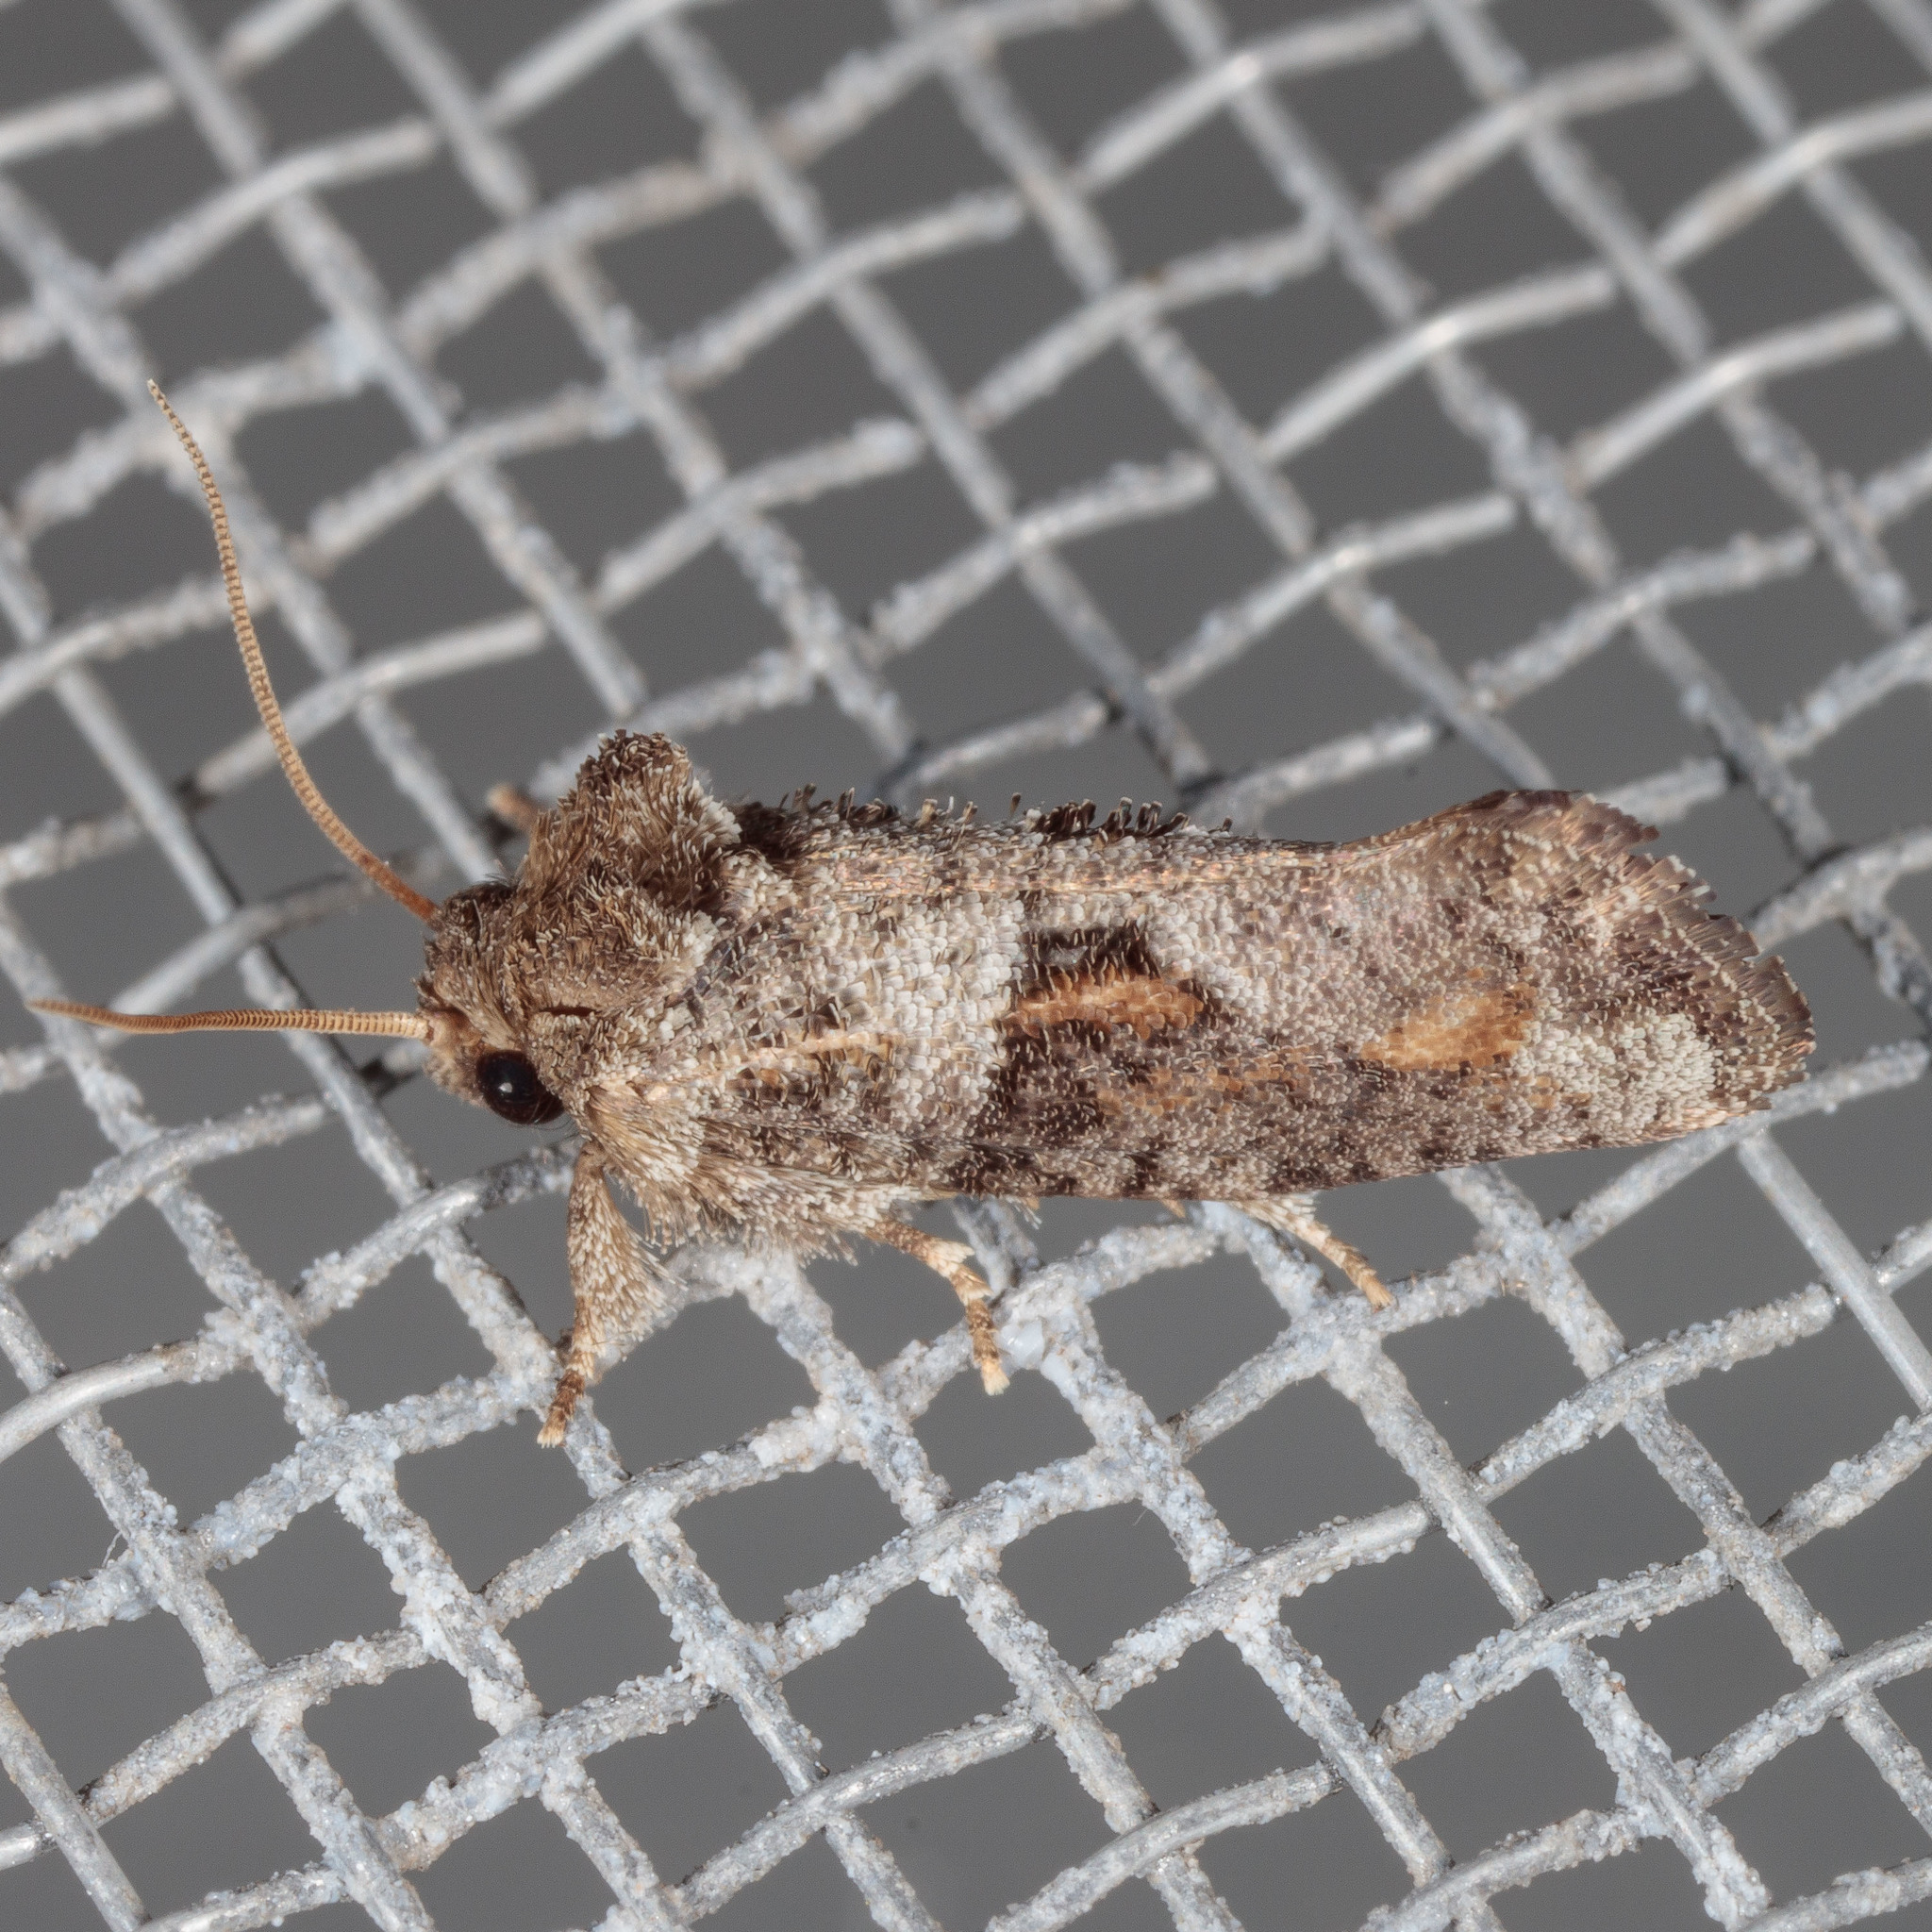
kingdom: Animalia
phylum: Arthropoda
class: Insecta
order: Lepidoptera
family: Tineidae
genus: Acrolophus
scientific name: Acrolophus piger
